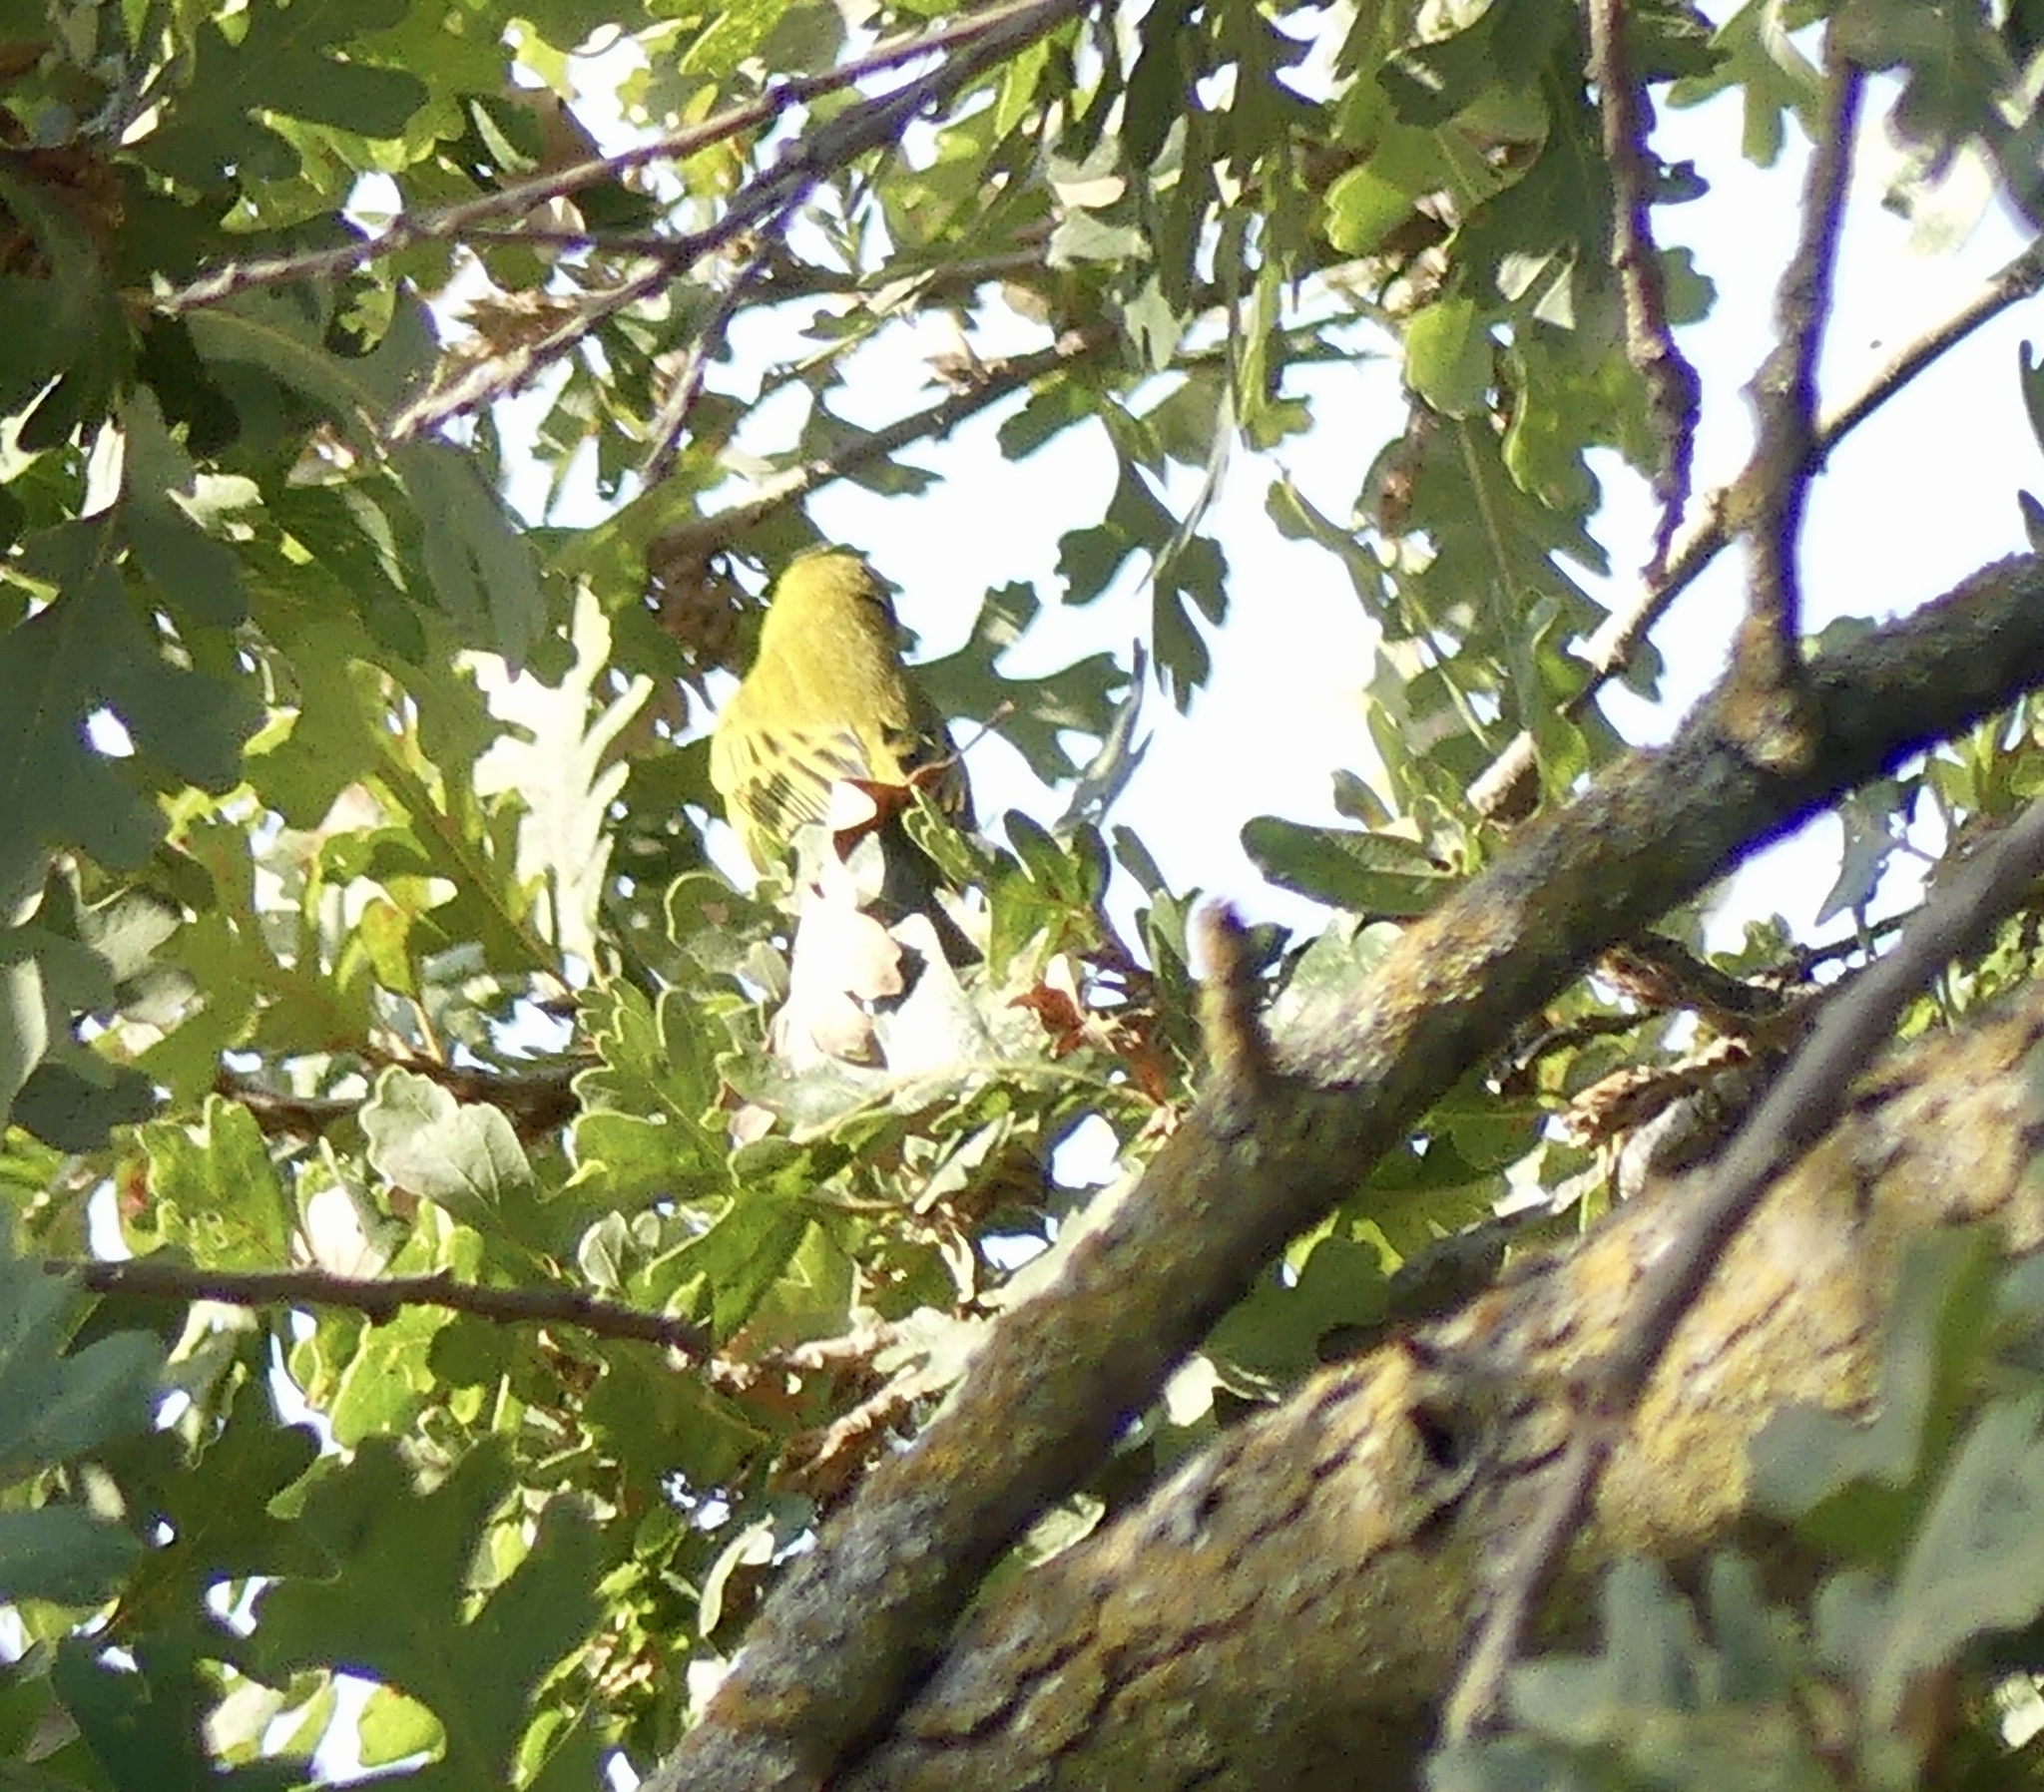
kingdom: Animalia
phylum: Chordata
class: Aves
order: Passeriformes
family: Parulidae
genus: Setophaga
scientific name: Setophaga petechia
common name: Yellow warbler
